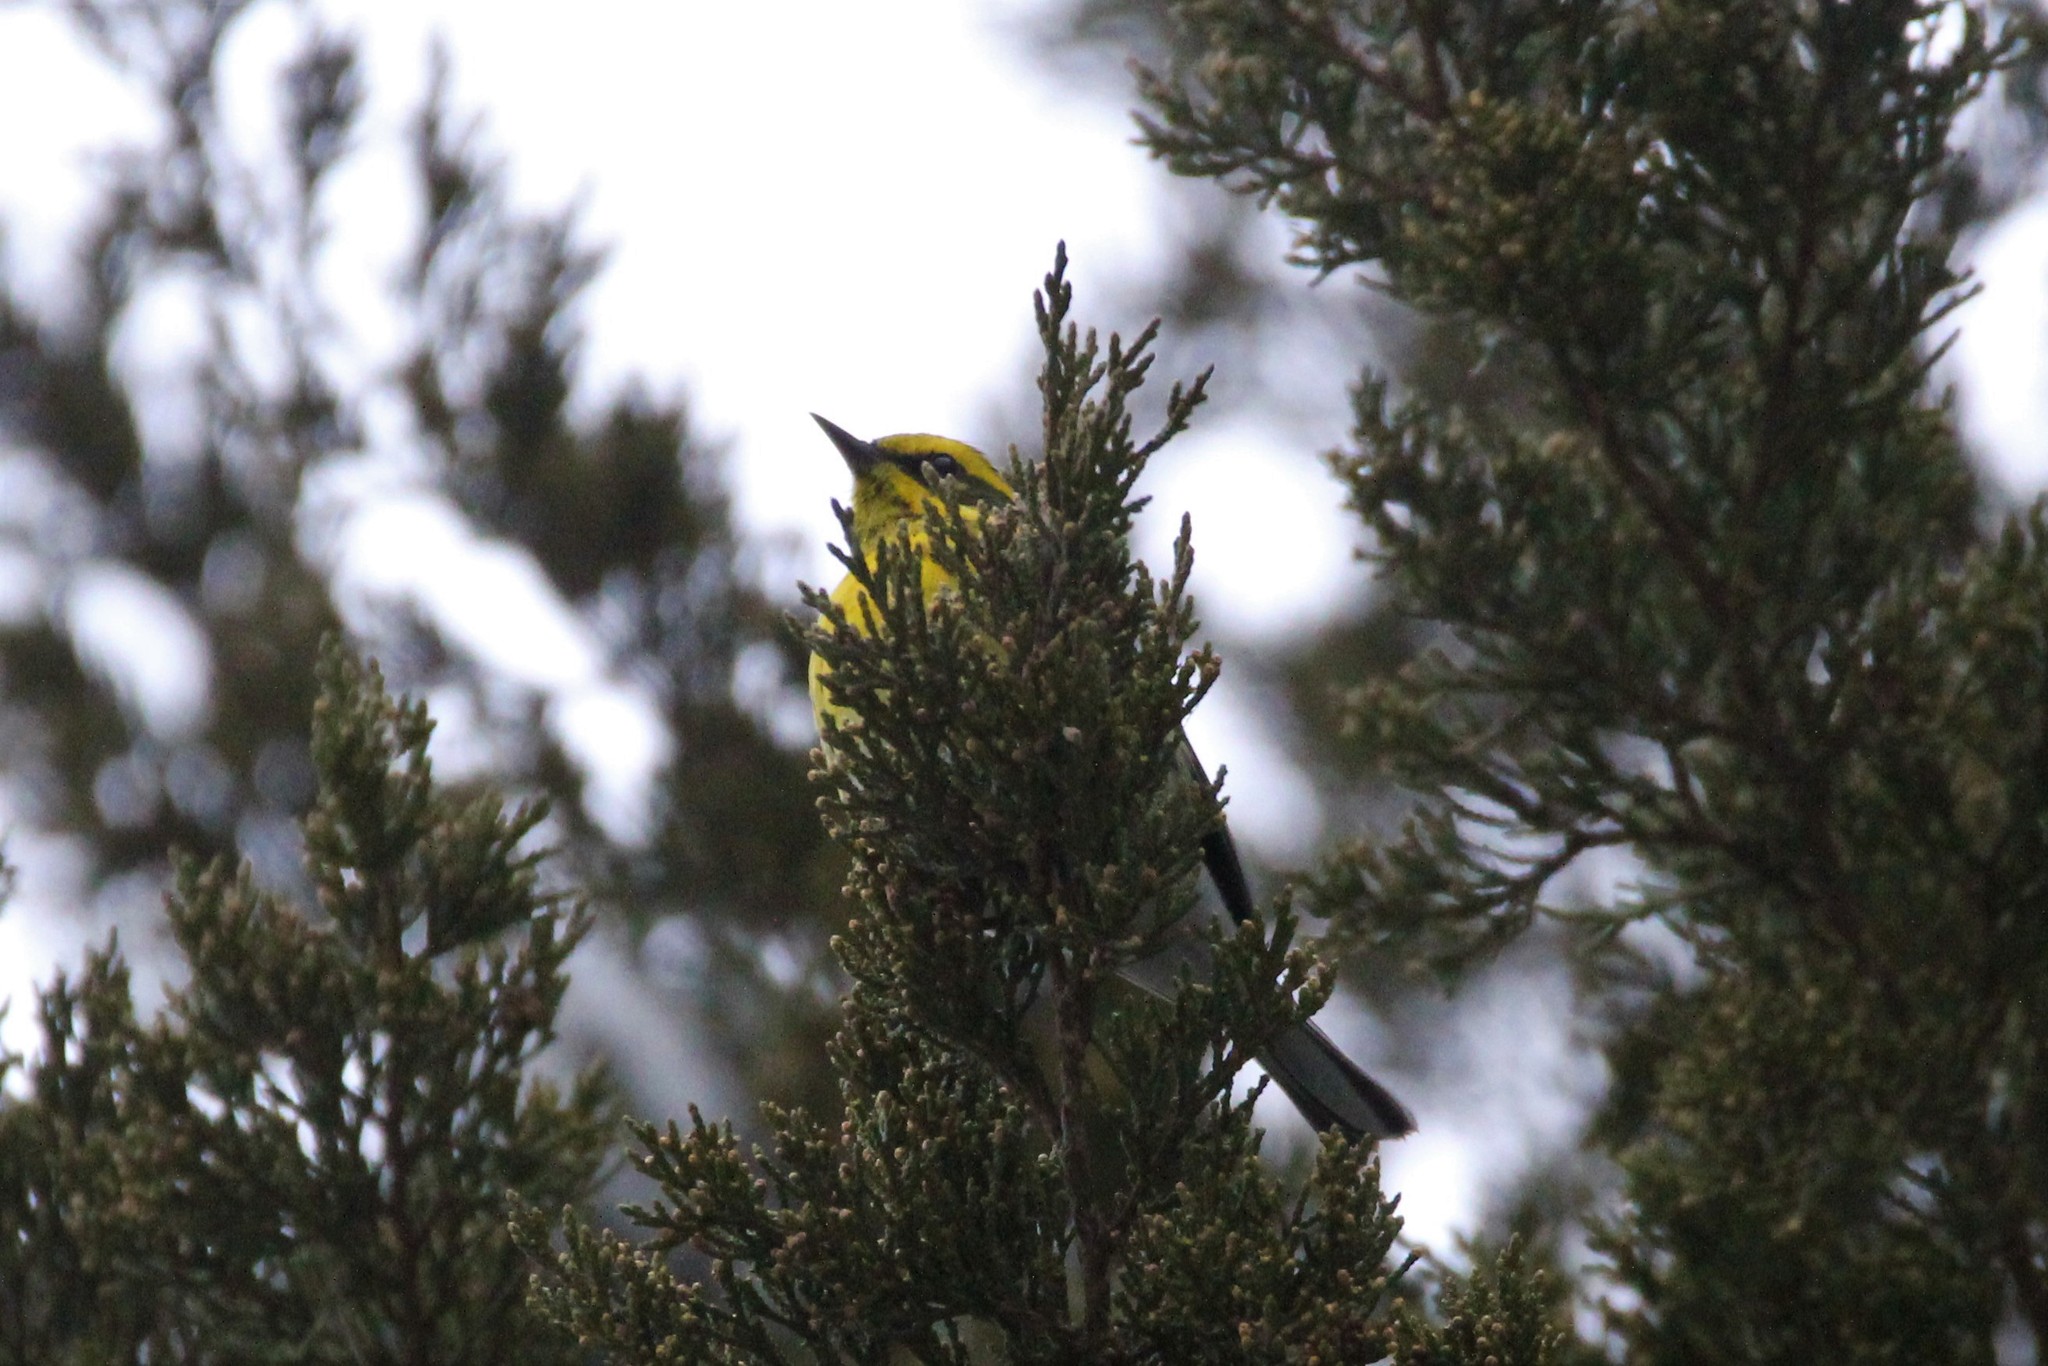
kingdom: Animalia
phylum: Chordata
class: Aves
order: Passeriformes
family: Parulidae
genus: Setophaga
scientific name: Setophaga townsendi
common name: Townsend's warbler
